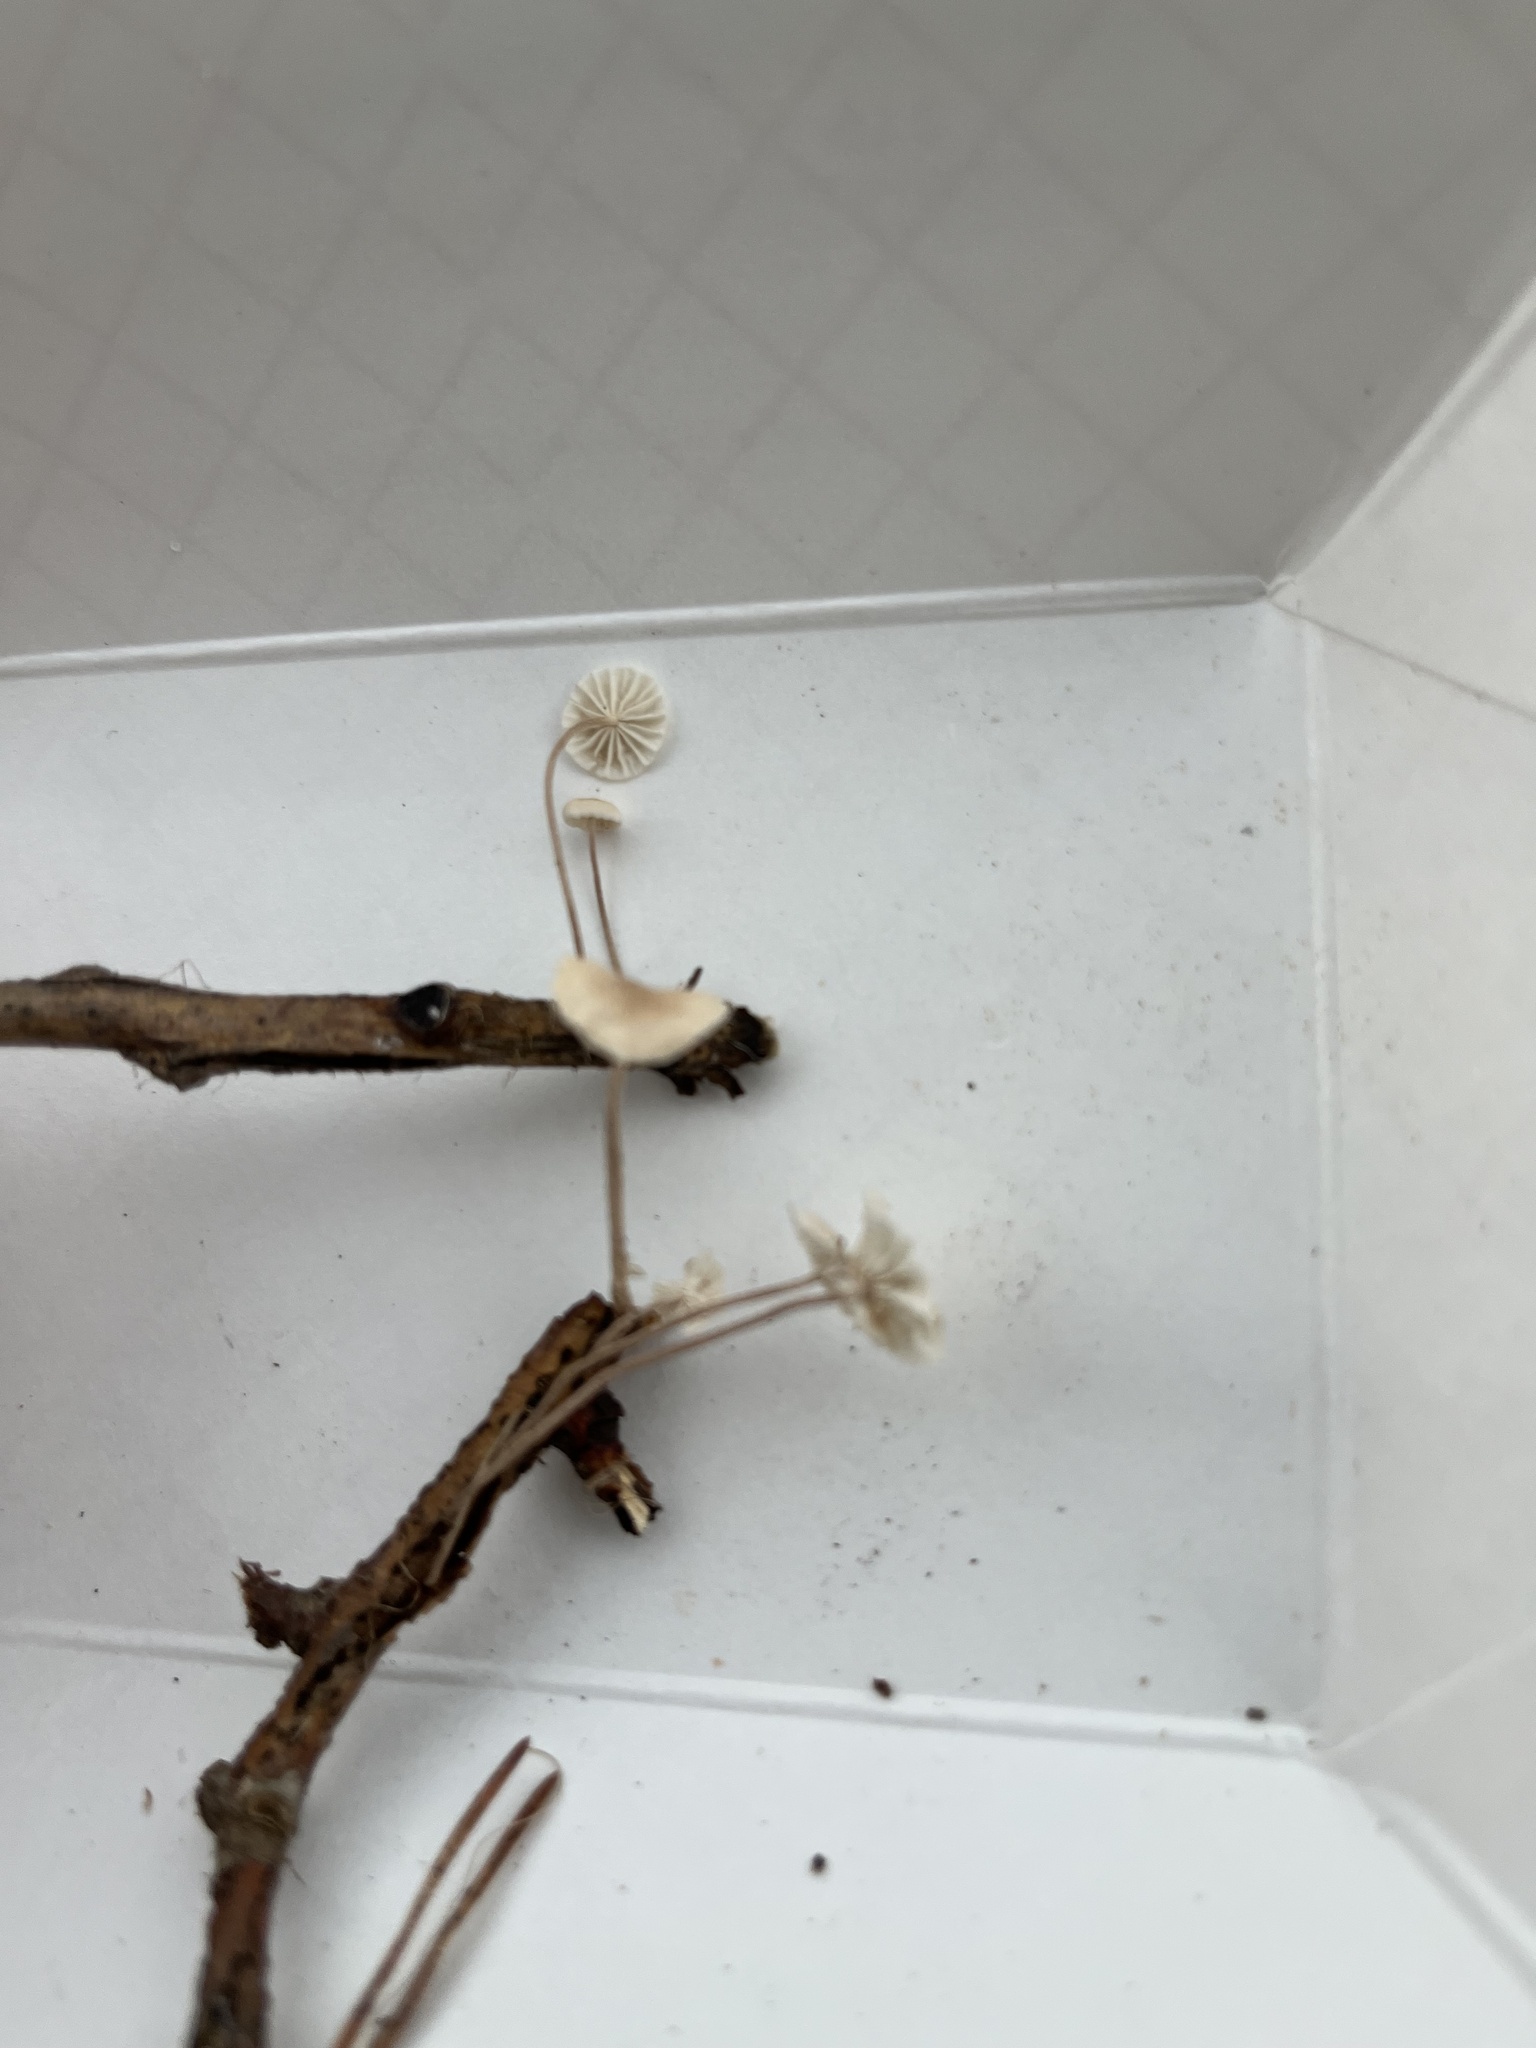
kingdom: Fungi
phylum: Basidiomycota
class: Agaricomycetes
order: Agaricales
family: Omphalotaceae
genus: Mycetinis
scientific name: Mycetinis opacus
